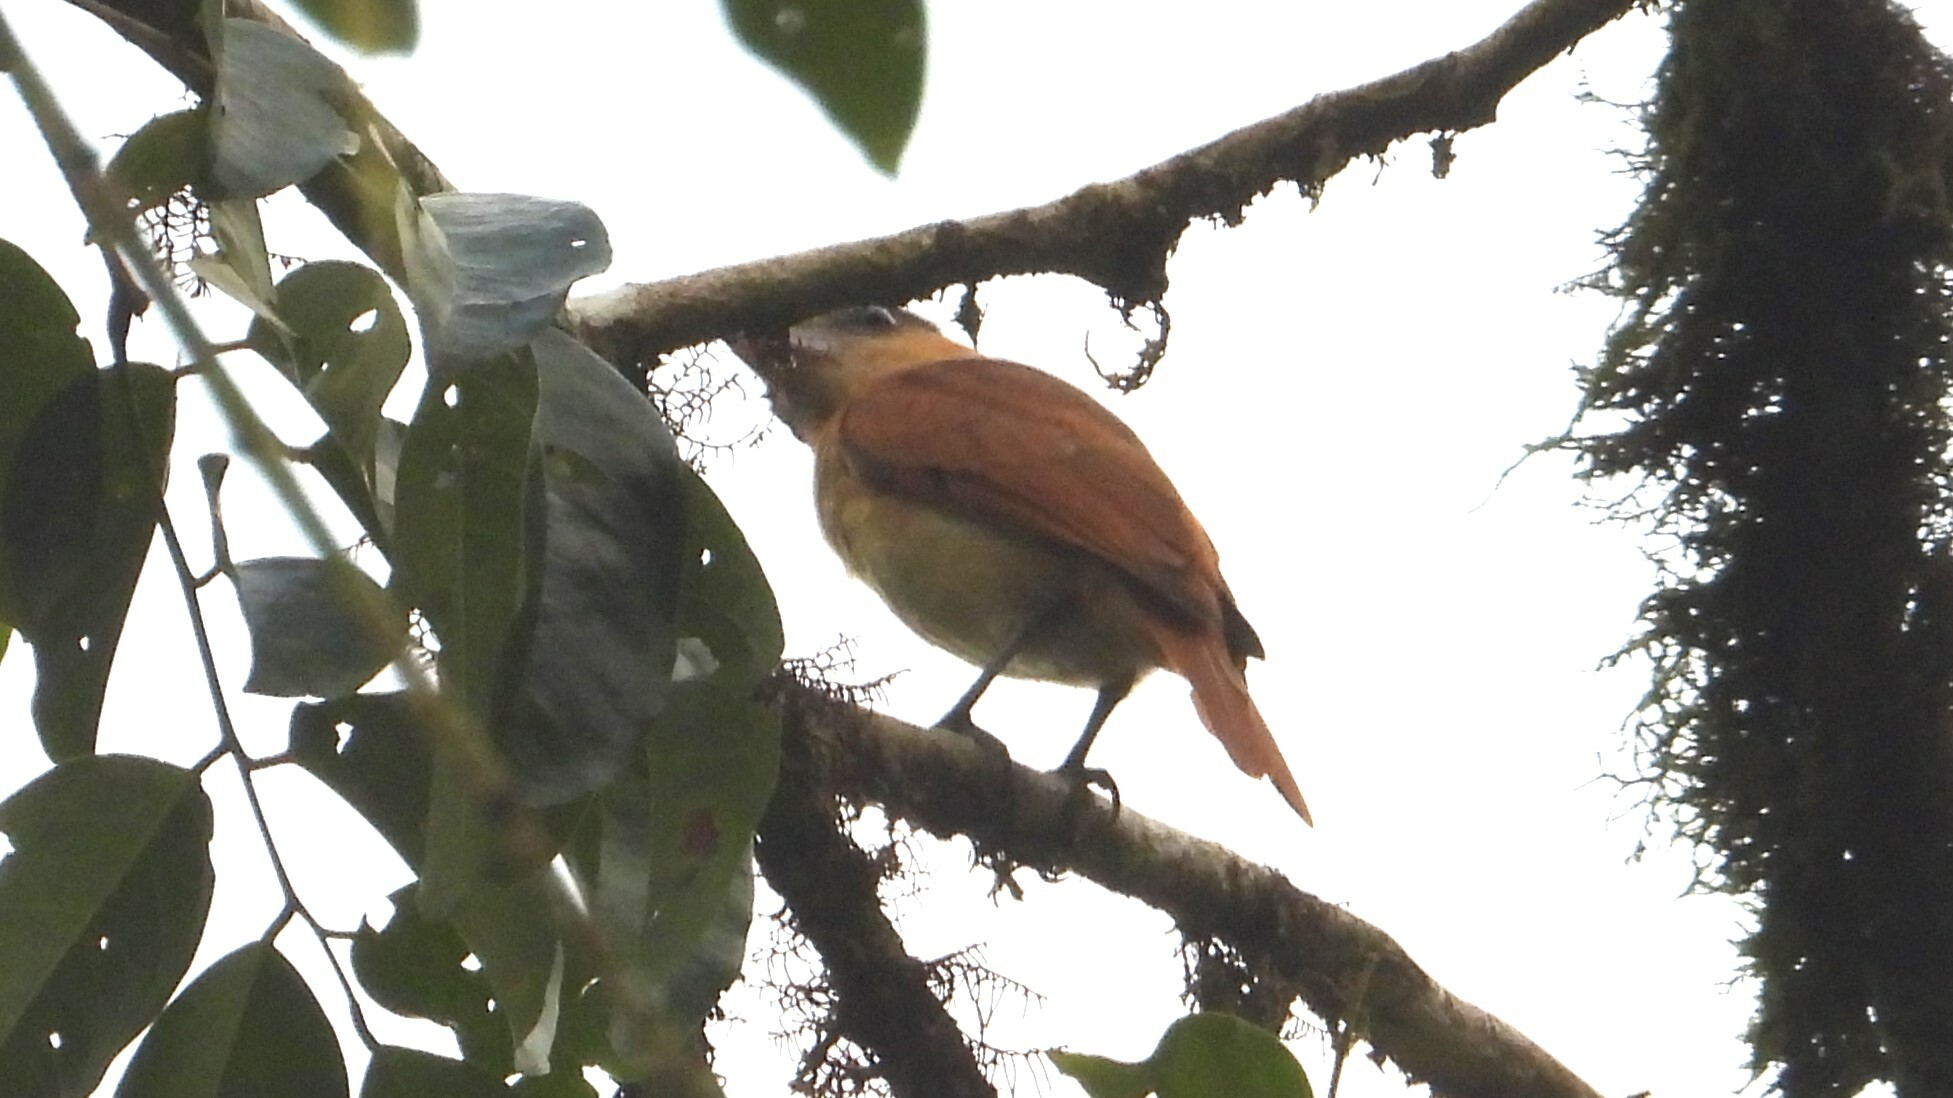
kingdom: Animalia
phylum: Chordata
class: Aves
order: Passeriformes
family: Cotingidae
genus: Pachyramphus
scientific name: Pachyramphus aglaiae
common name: Rose-throated becard
